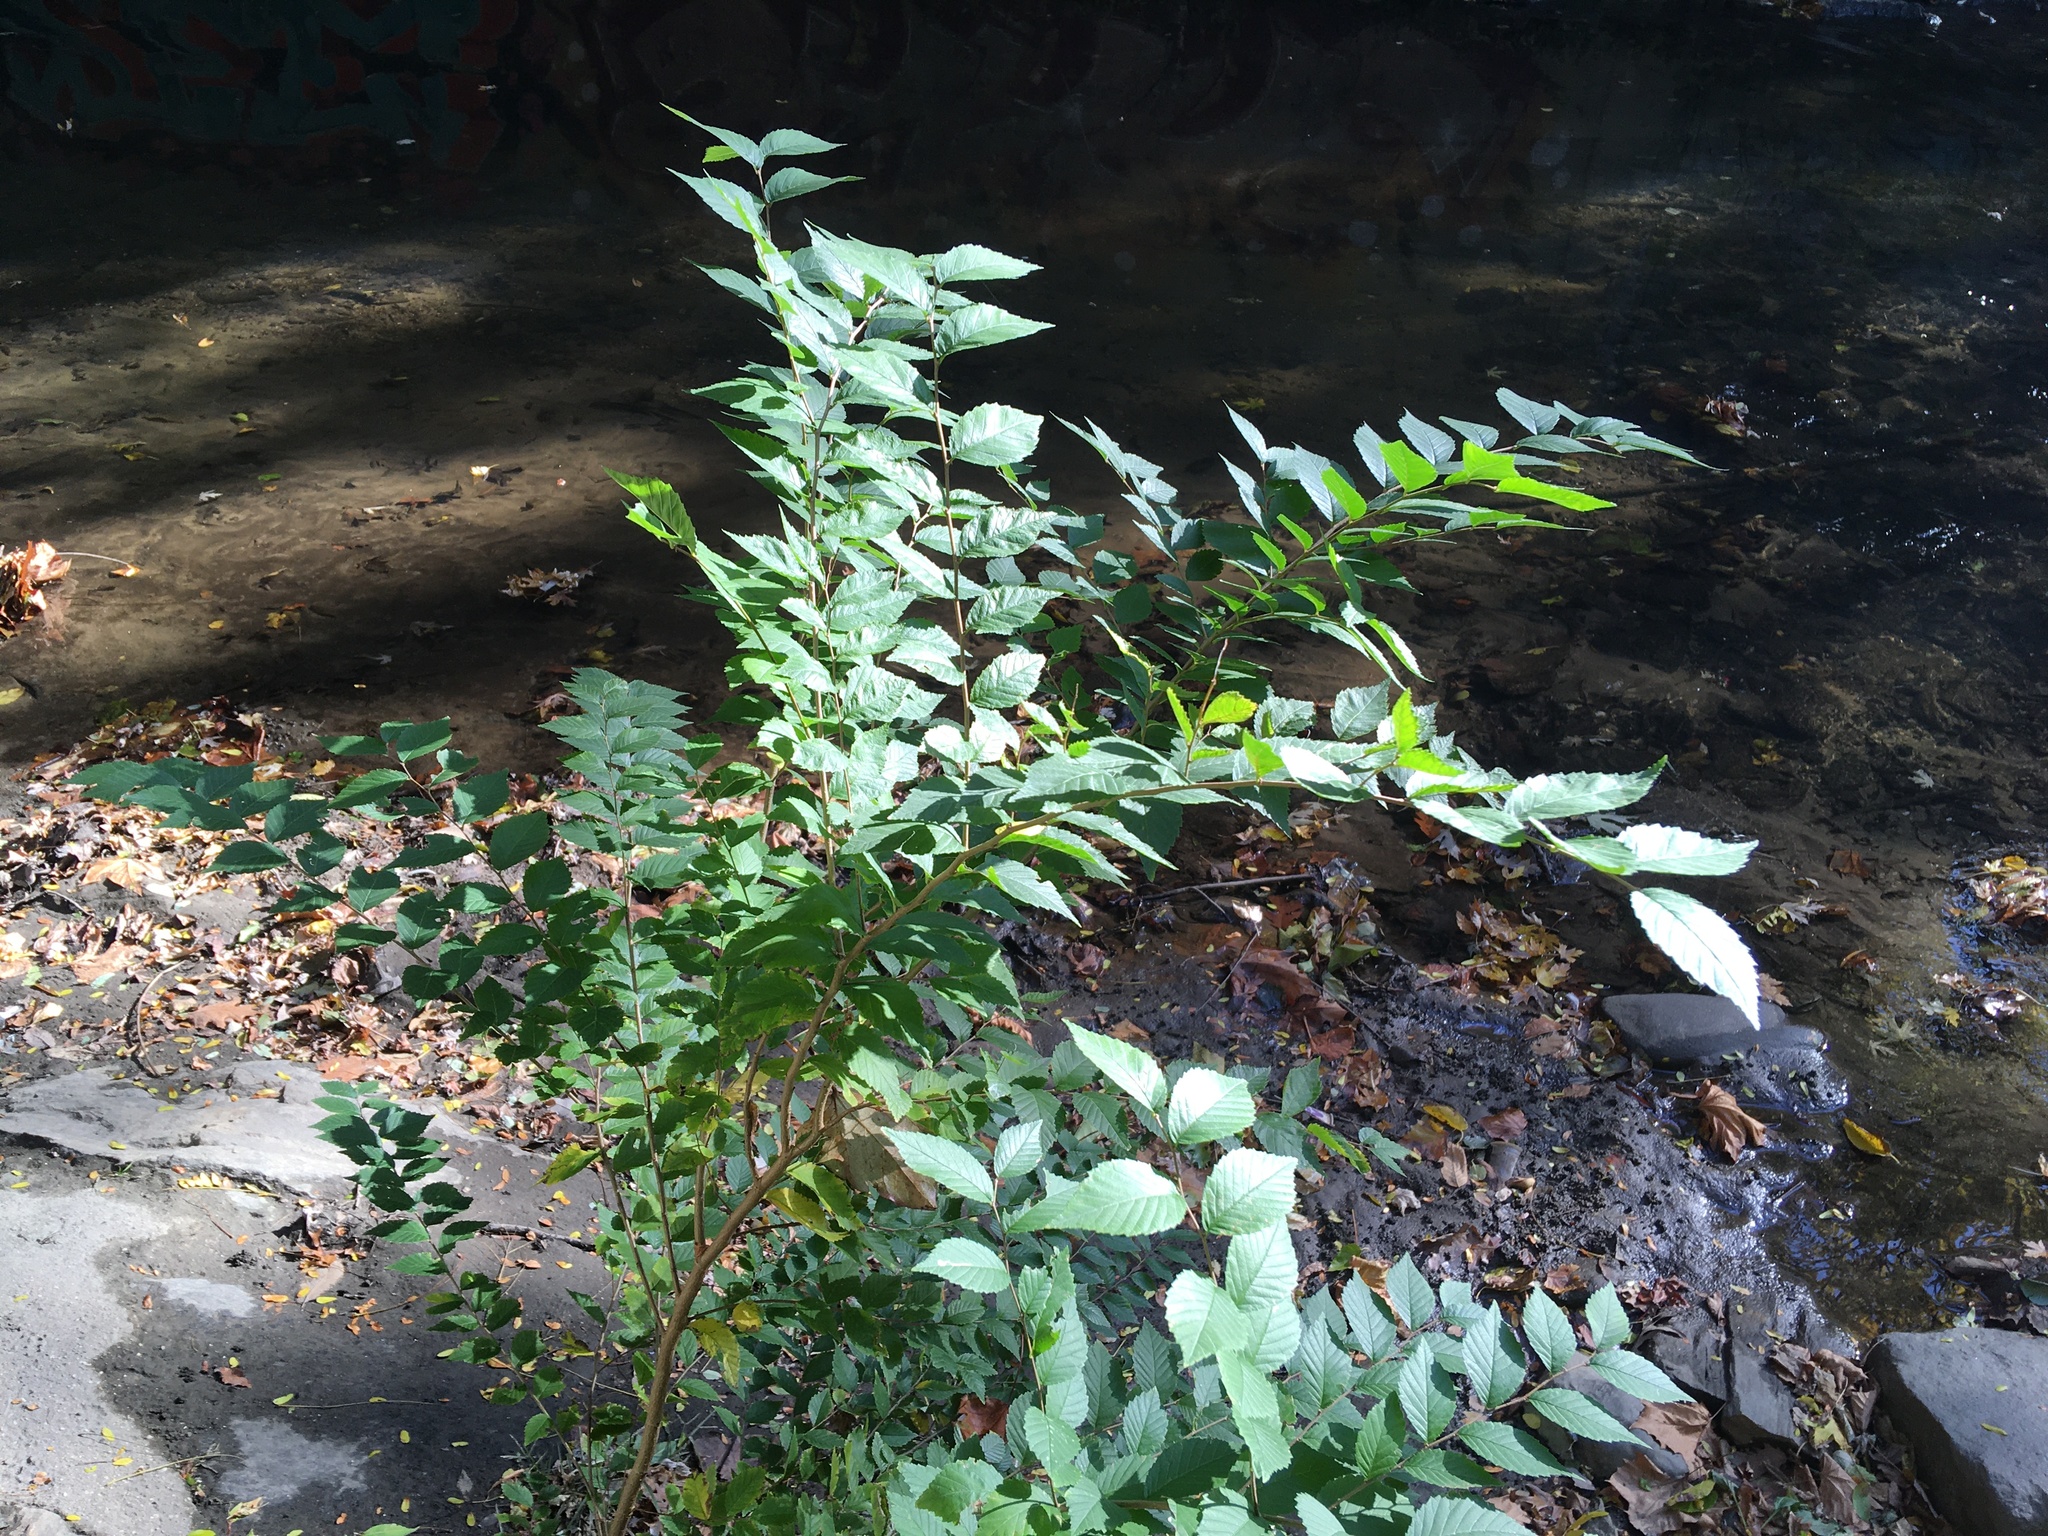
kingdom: Plantae
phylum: Tracheophyta
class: Magnoliopsida
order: Rosales
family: Ulmaceae
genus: Ulmus
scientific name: Ulmus pumila
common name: Siberian elm
